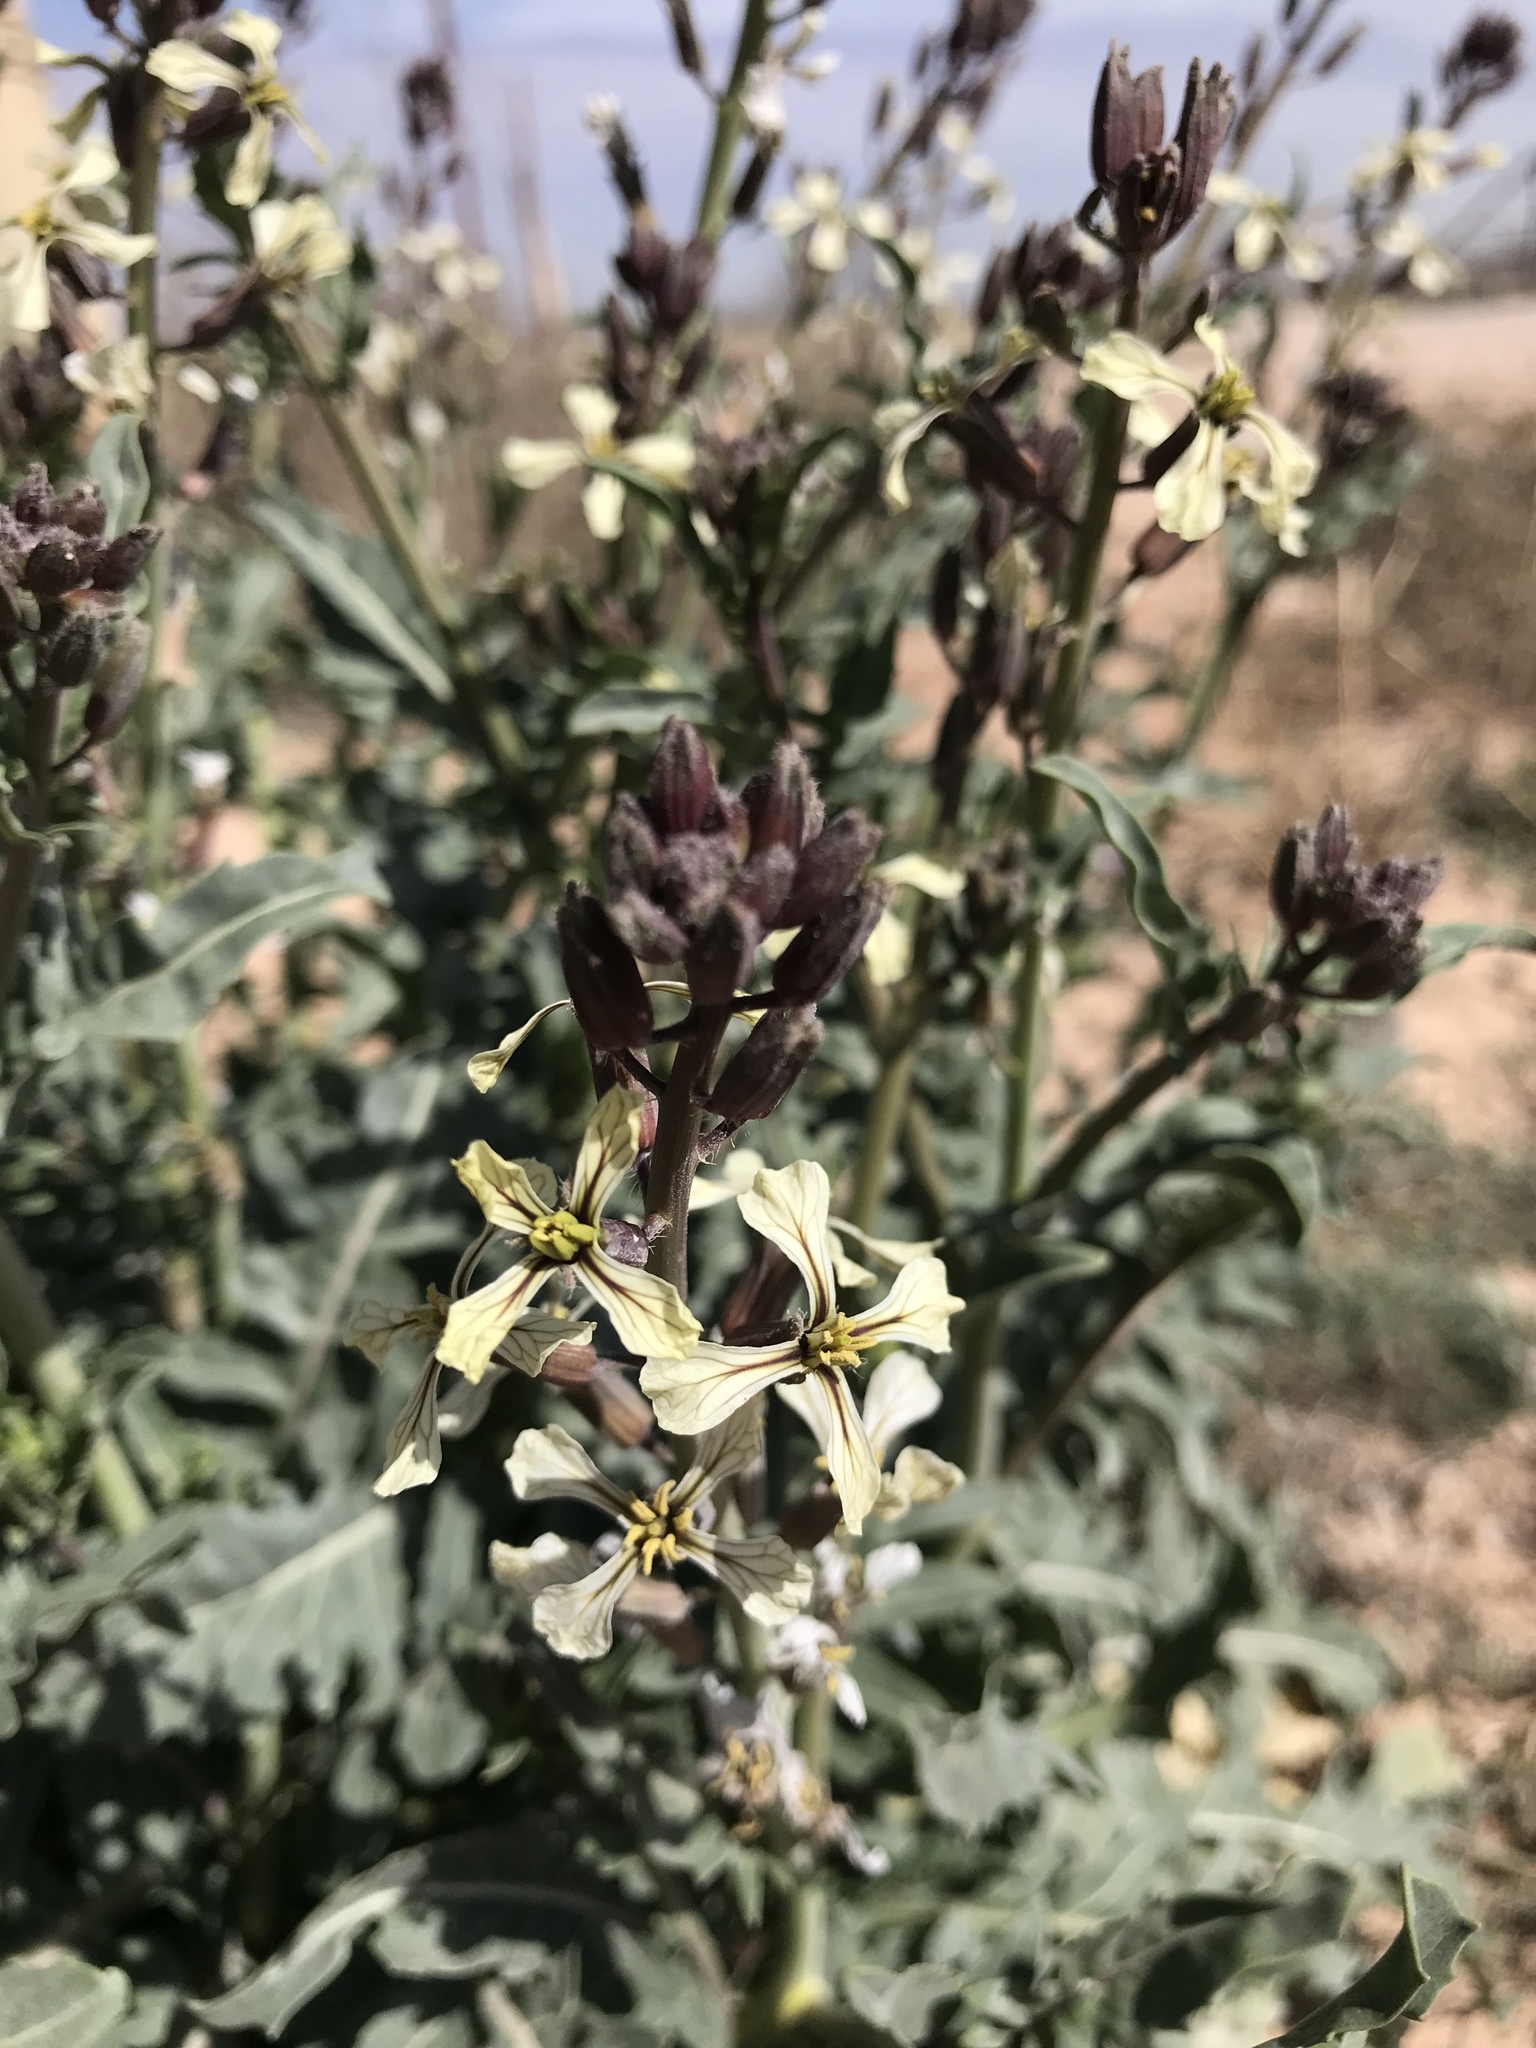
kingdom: Plantae
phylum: Tracheophyta
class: Magnoliopsida
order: Brassicales
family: Brassicaceae
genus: Eruca
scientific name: Eruca vesicaria
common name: Garden rocket
